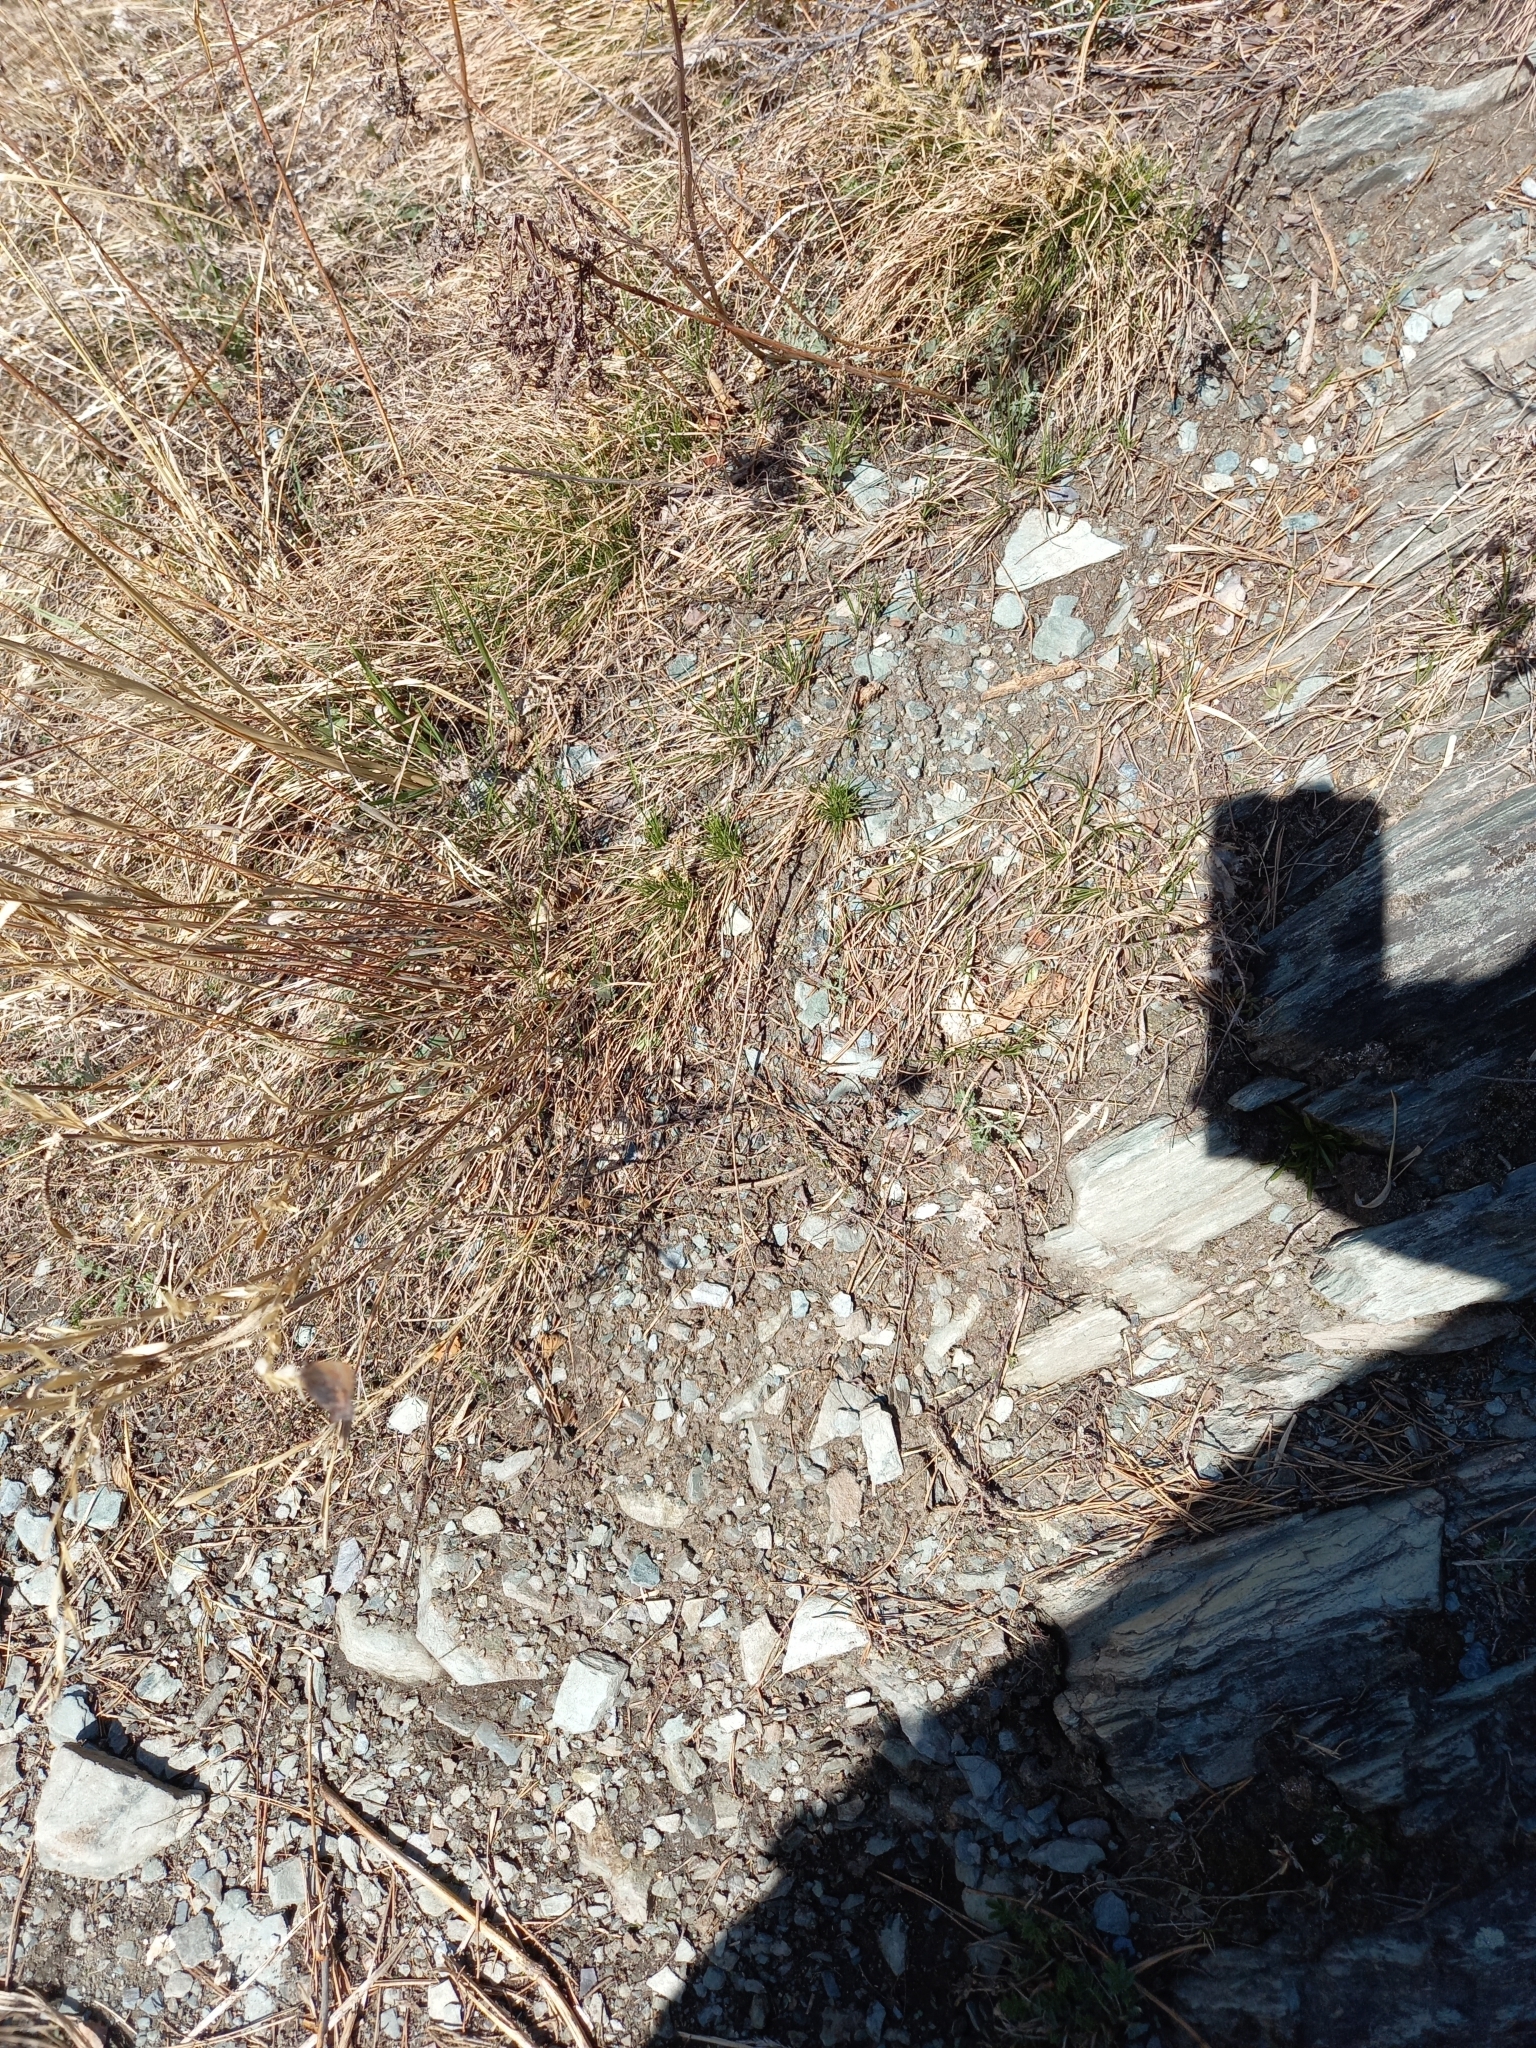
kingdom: Animalia
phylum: Arthropoda
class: Insecta
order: Lepidoptera
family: Lycaenidae
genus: Ginzia
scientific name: Ginzia Ahlbergia frivaldszkyi
